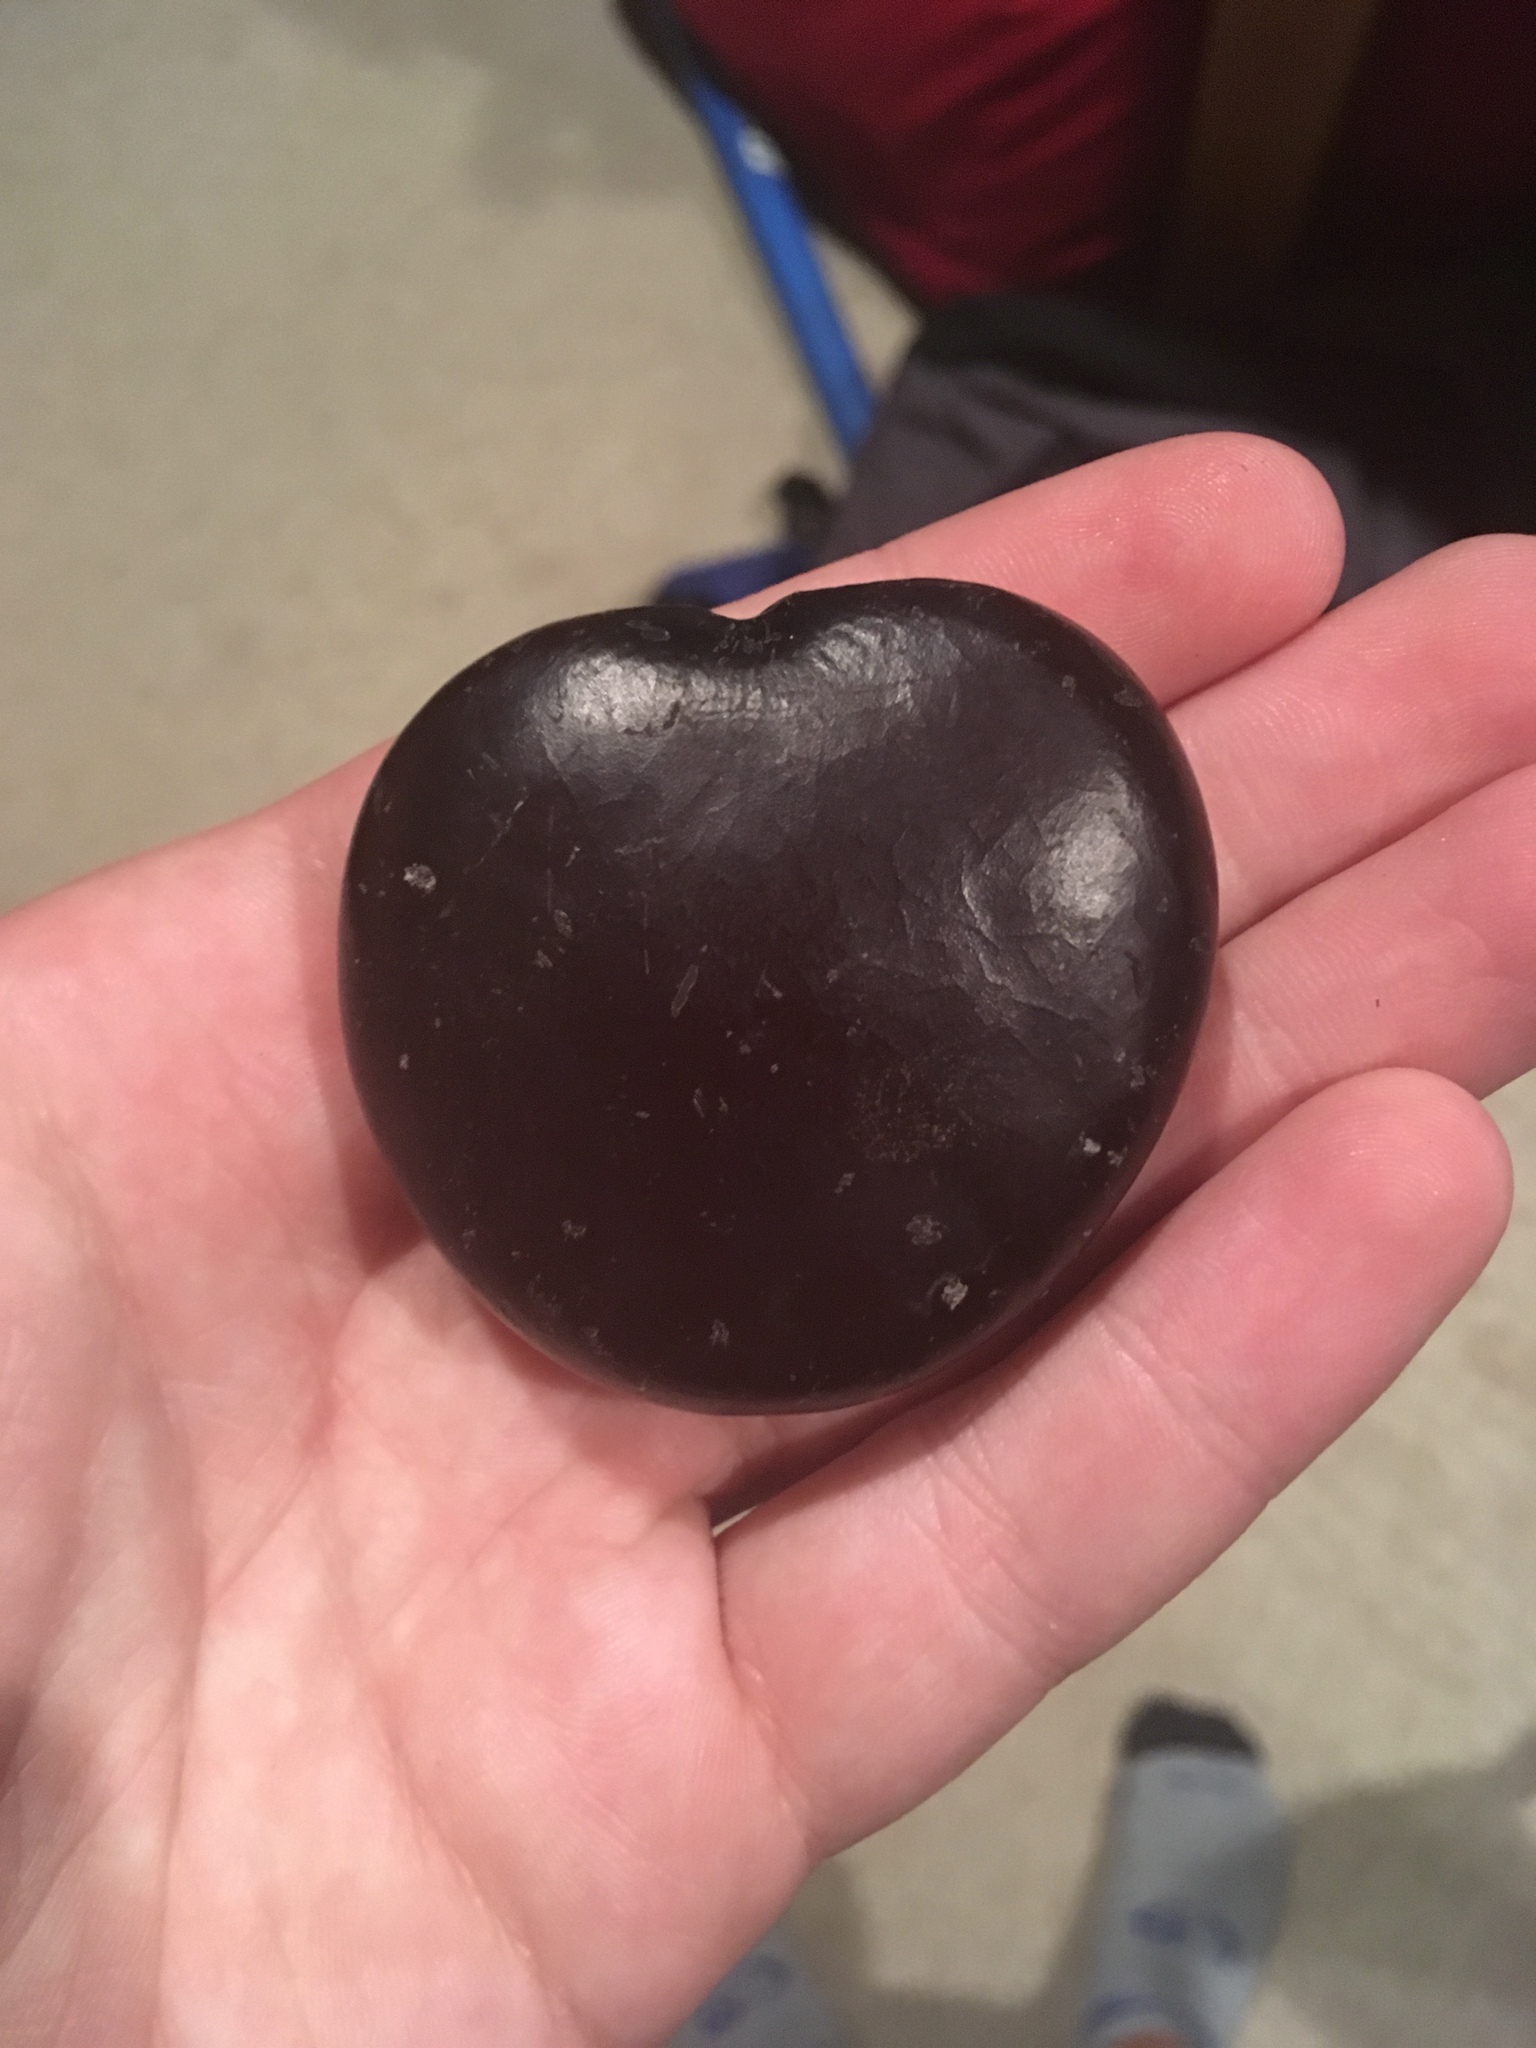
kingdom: Plantae
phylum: Tracheophyta
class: Magnoliopsida
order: Fabales
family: Fabaceae
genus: Entada
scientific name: Entada gigas
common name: Nicker-bean
